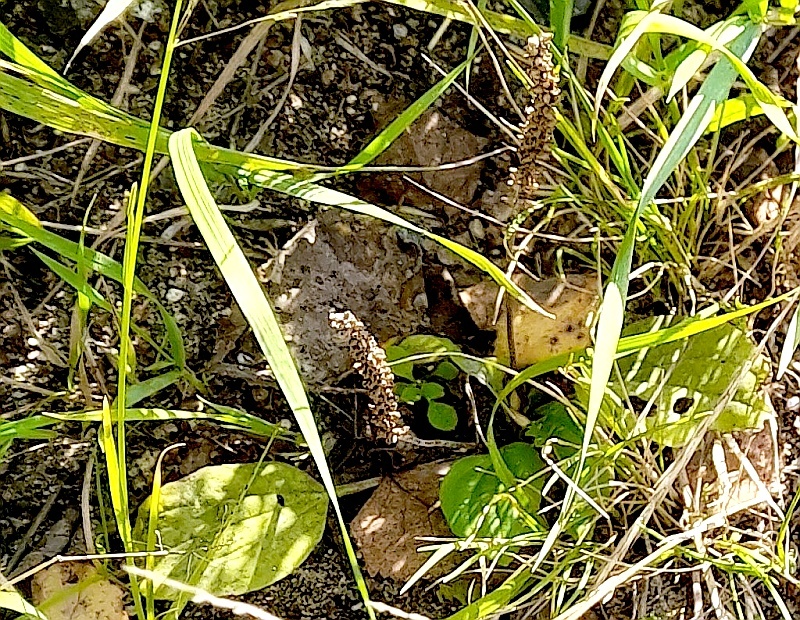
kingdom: Plantae
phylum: Tracheophyta
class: Magnoliopsida
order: Lamiales
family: Plantaginaceae
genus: Plantago
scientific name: Plantago major
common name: Common plantain
